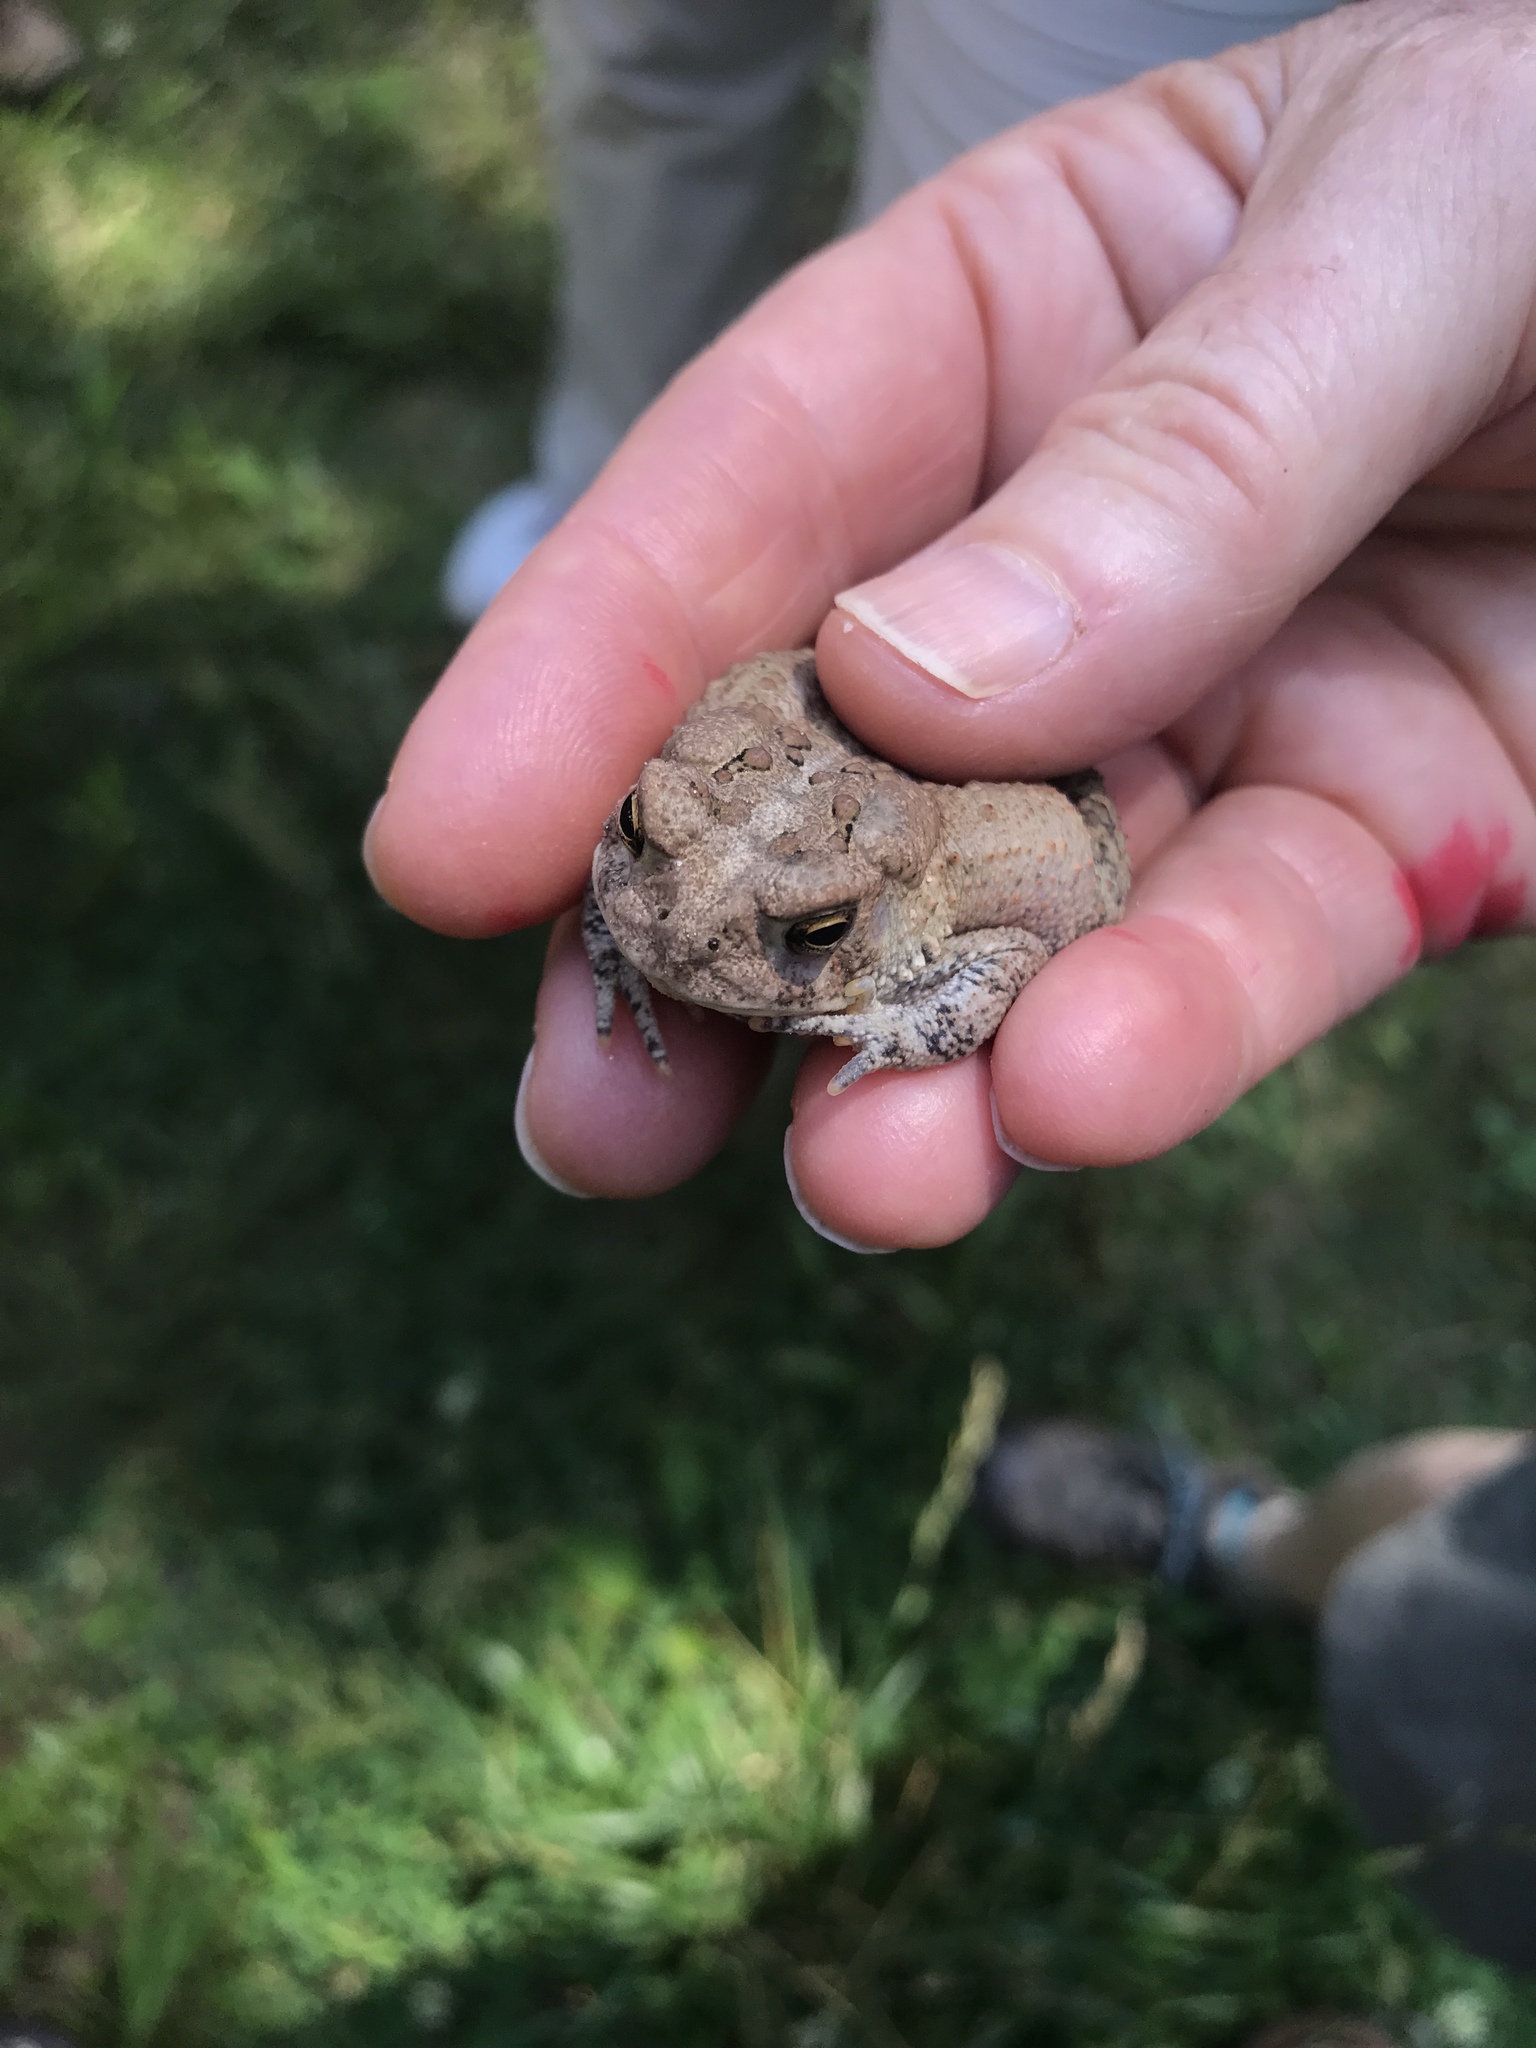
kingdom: Animalia
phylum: Chordata
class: Amphibia
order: Anura
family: Bufonidae
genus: Anaxyrus
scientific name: Anaxyrus americanus
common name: American toad
